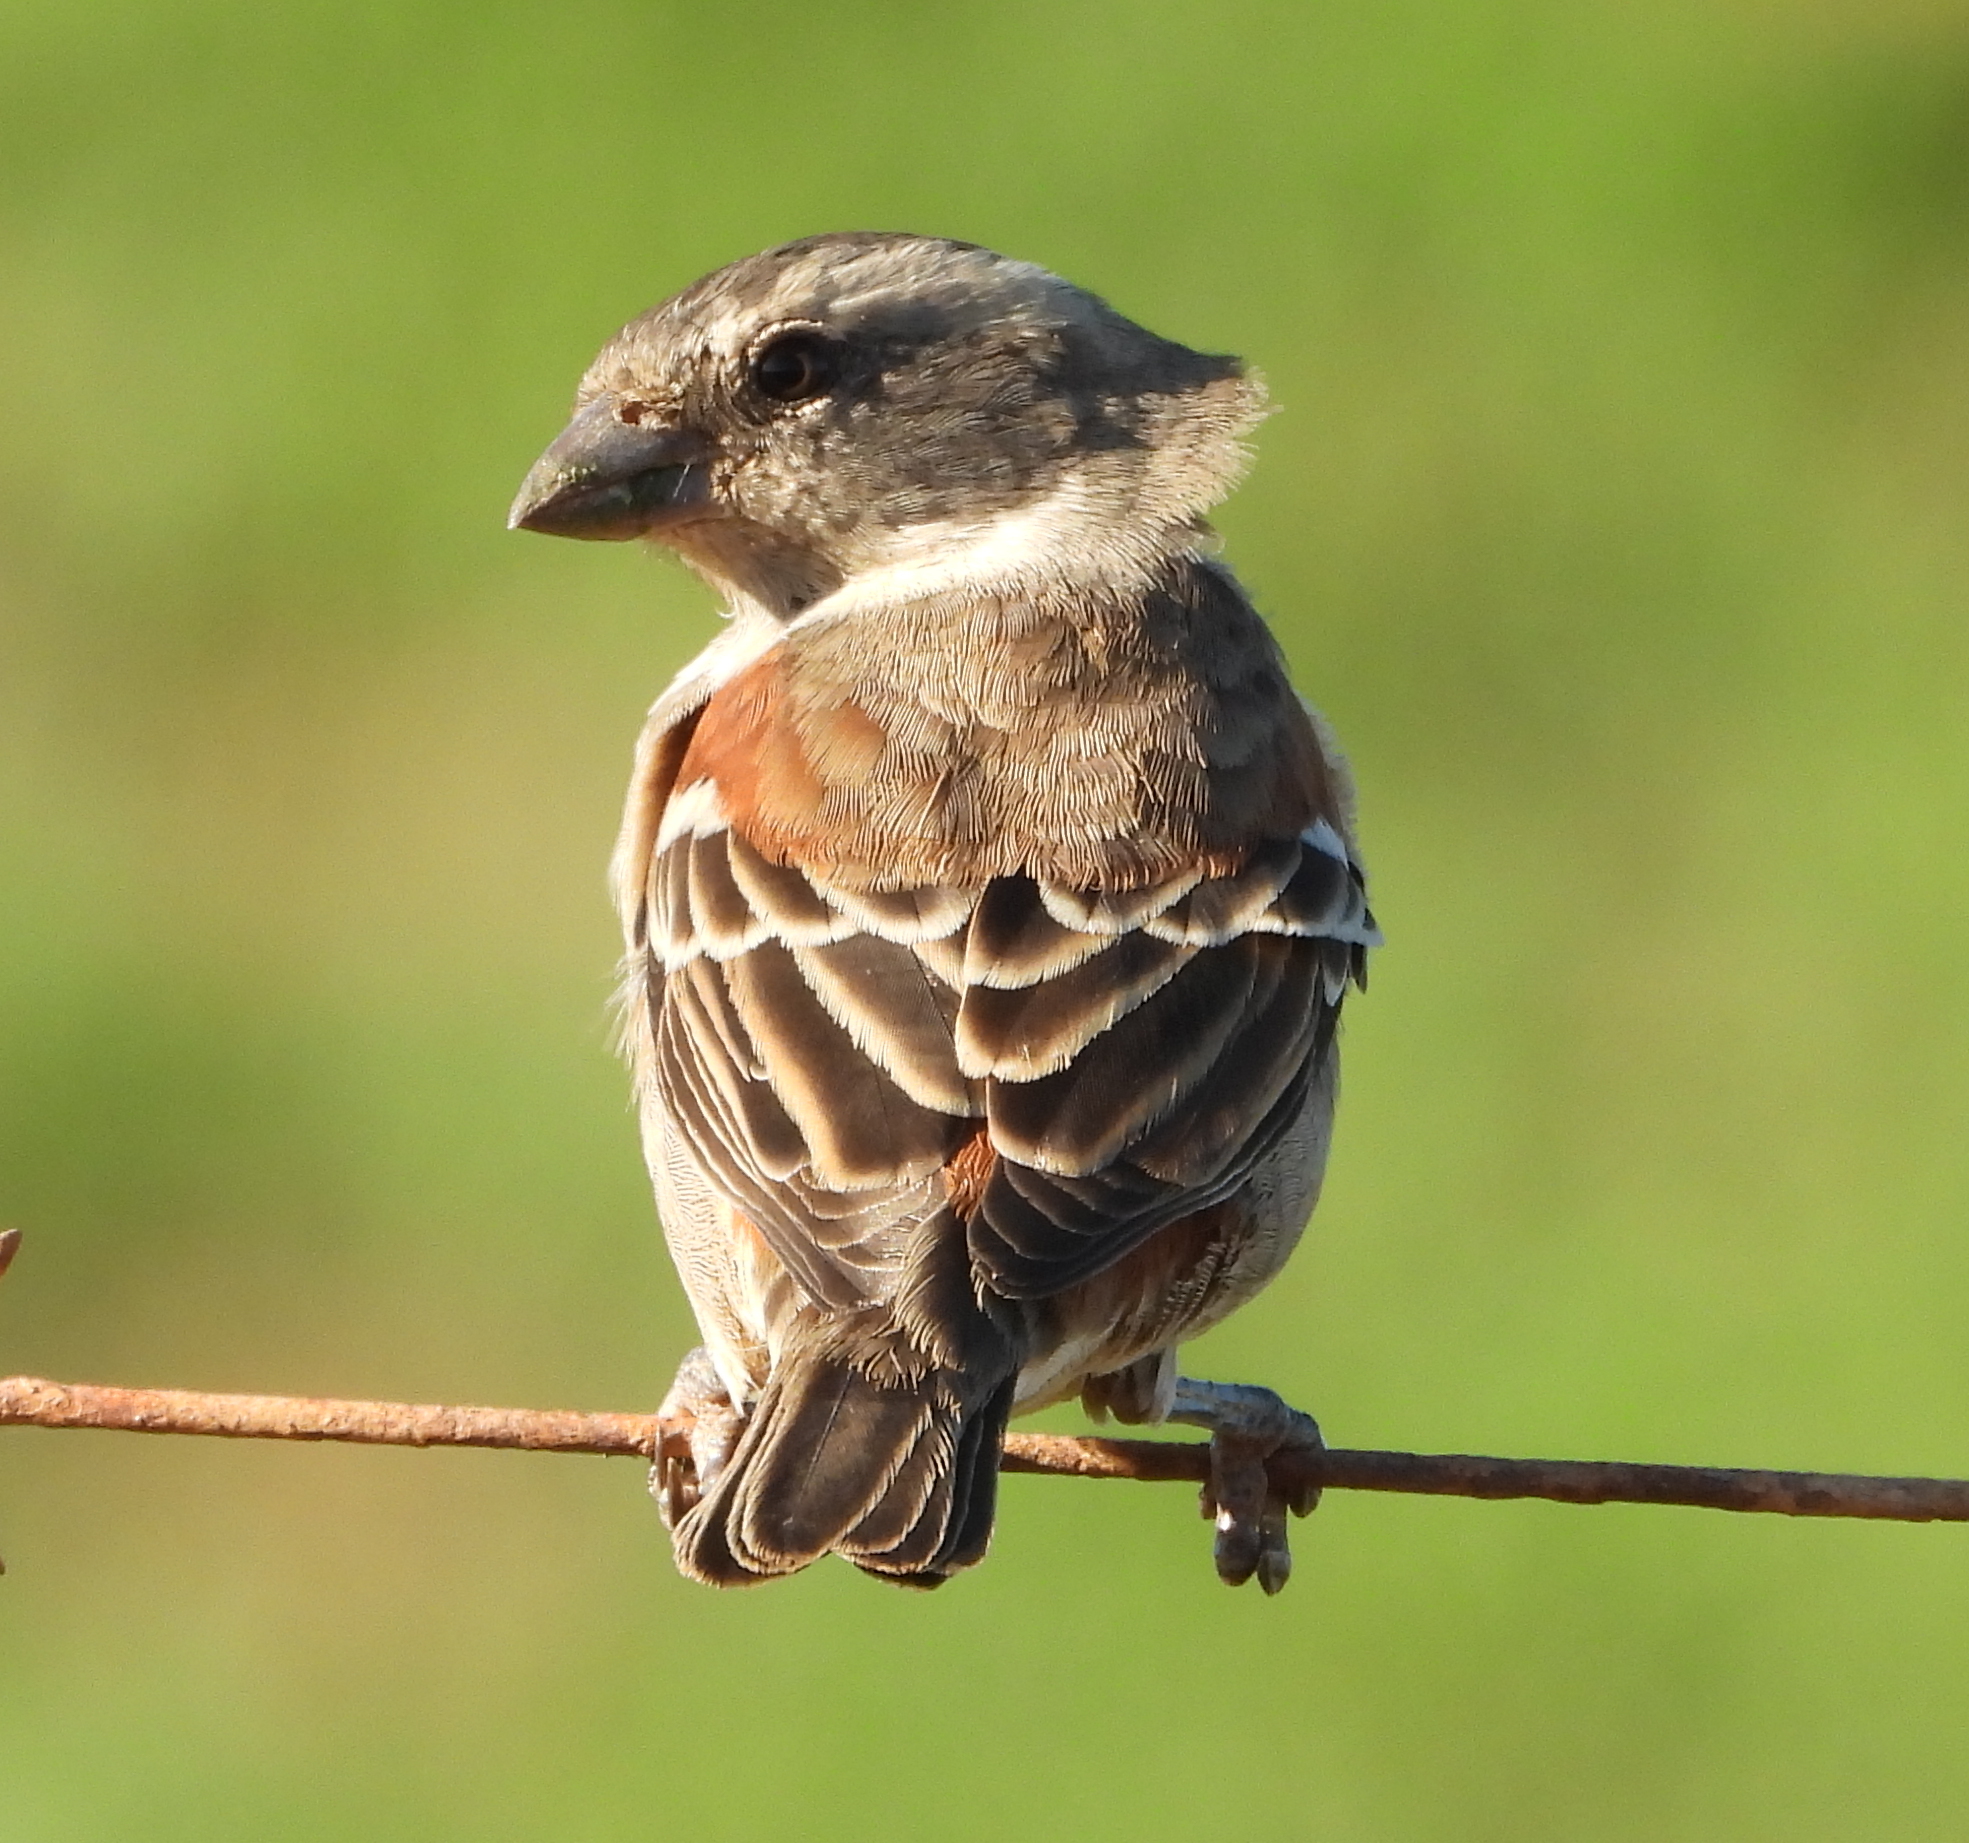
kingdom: Animalia
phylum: Chordata
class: Aves
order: Passeriformes
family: Passeridae
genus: Passer
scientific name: Passer melanurus
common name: Cape sparrow
